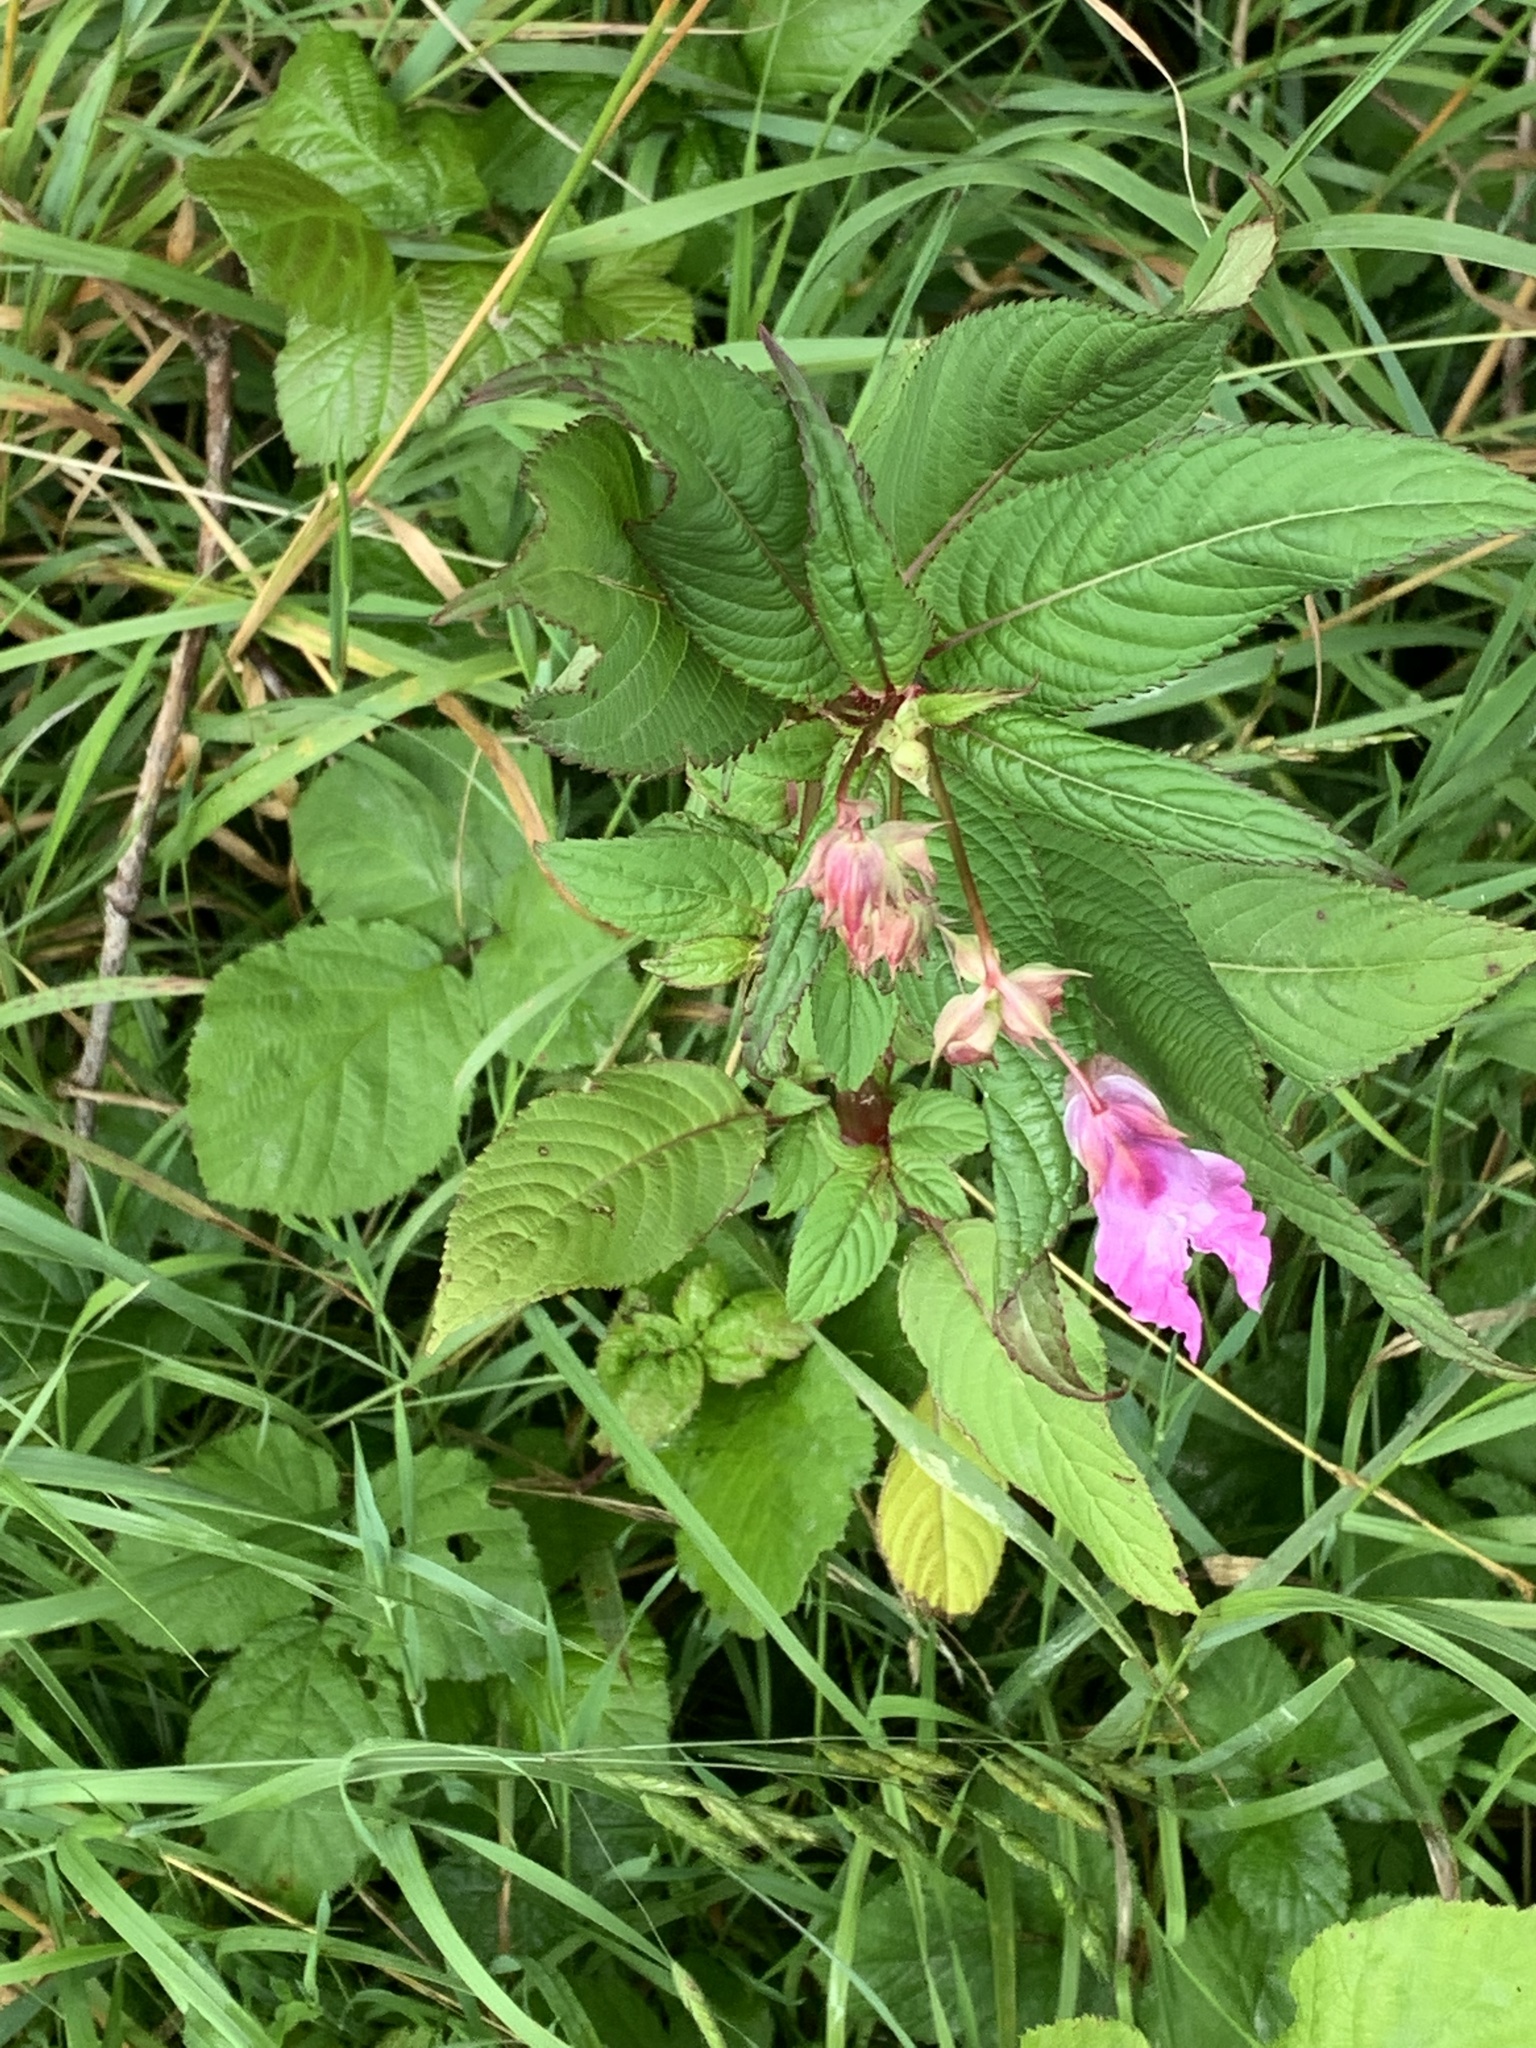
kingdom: Plantae
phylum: Tracheophyta
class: Magnoliopsida
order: Ericales
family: Balsaminaceae
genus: Impatiens
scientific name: Impatiens glandulifera
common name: Himalayan balsam
